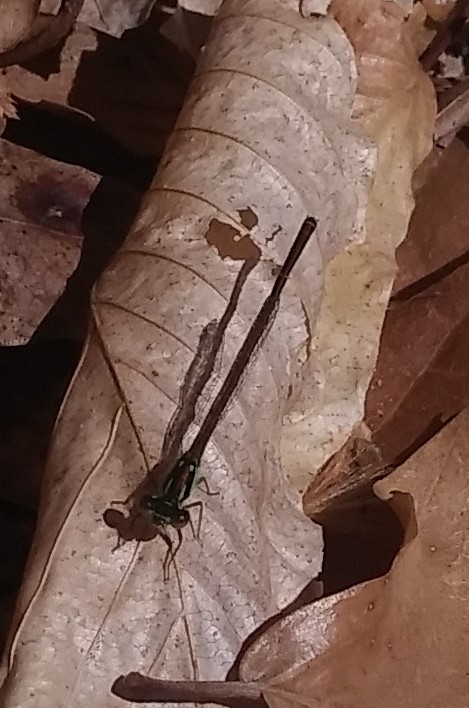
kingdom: Animalia
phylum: Arthropoda
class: Insecta
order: Odonata
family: Coenagrionidae
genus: Ischnura
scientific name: Ischnura posita
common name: Fragile forktail
